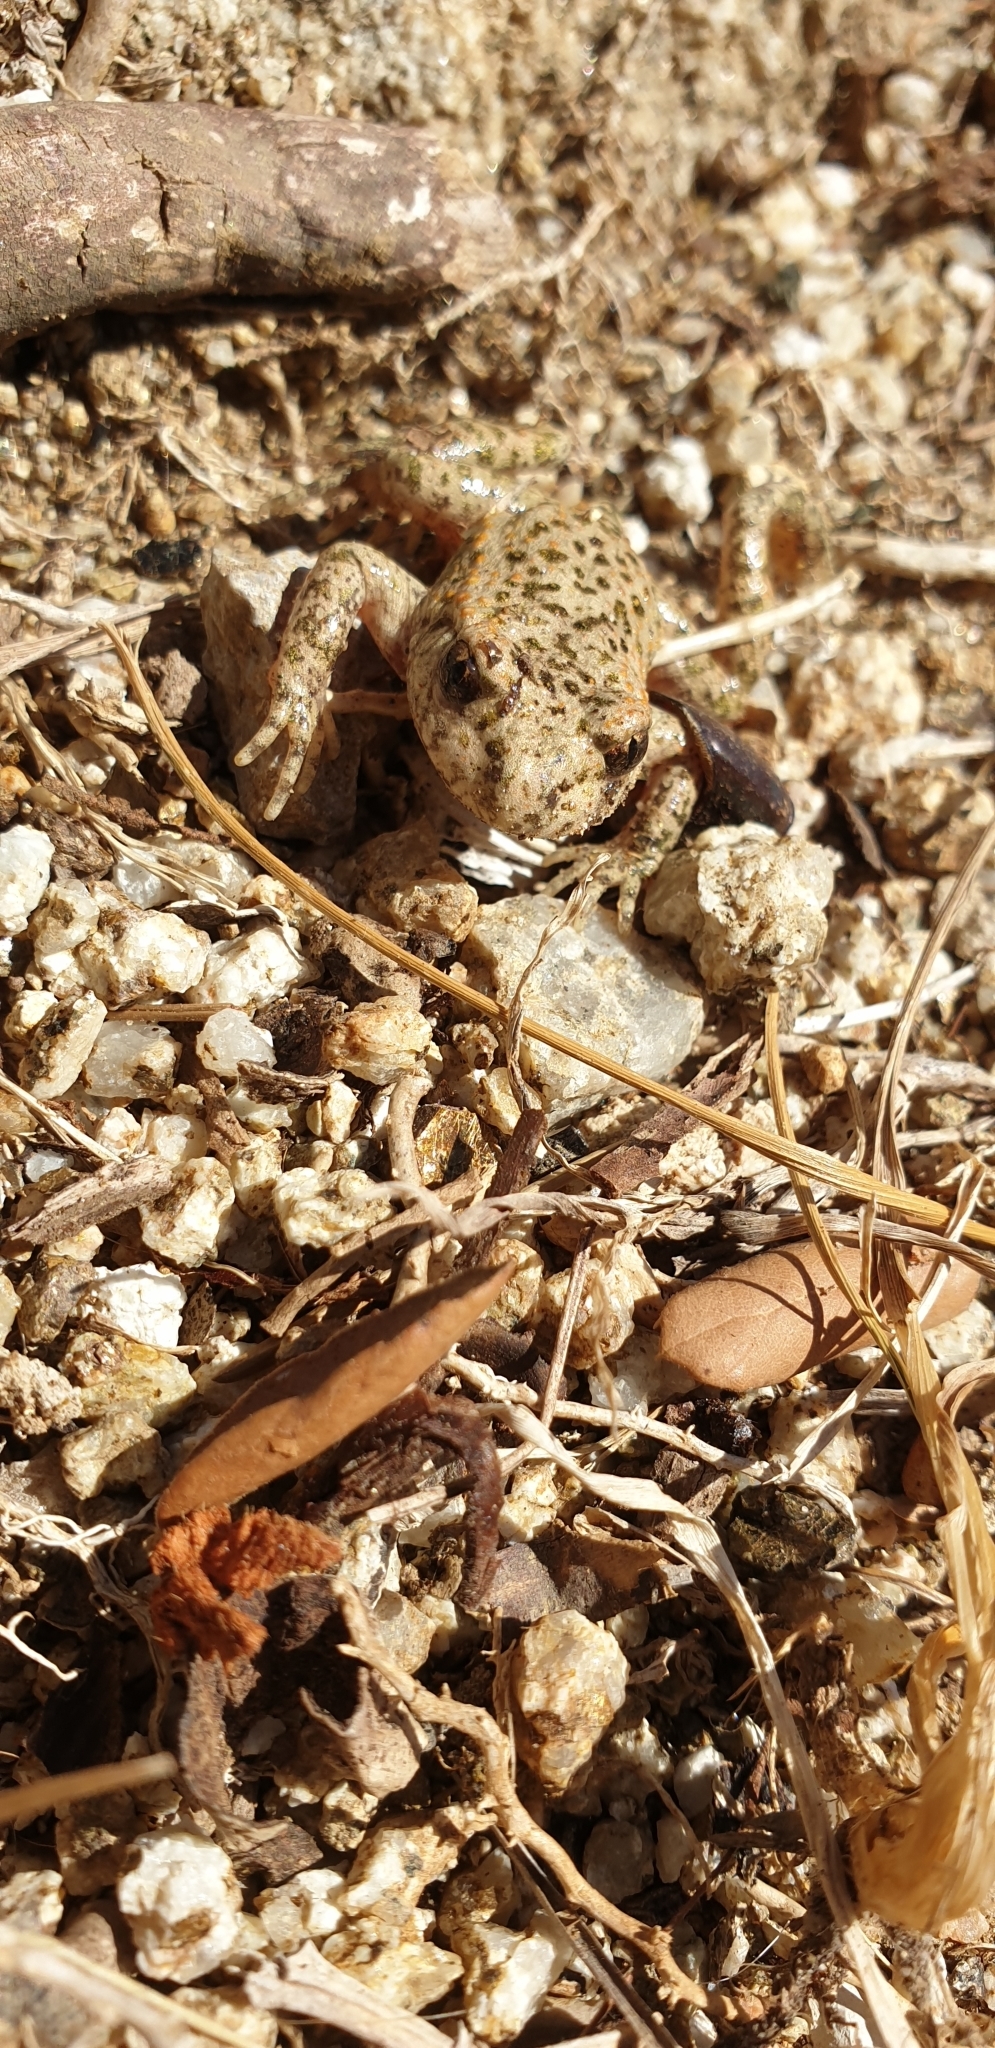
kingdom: Animalia
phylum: Chordata
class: Amphibia
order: Anura
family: Alytidae
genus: Alytes
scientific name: Alytes obstetricans
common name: Midwife toad
